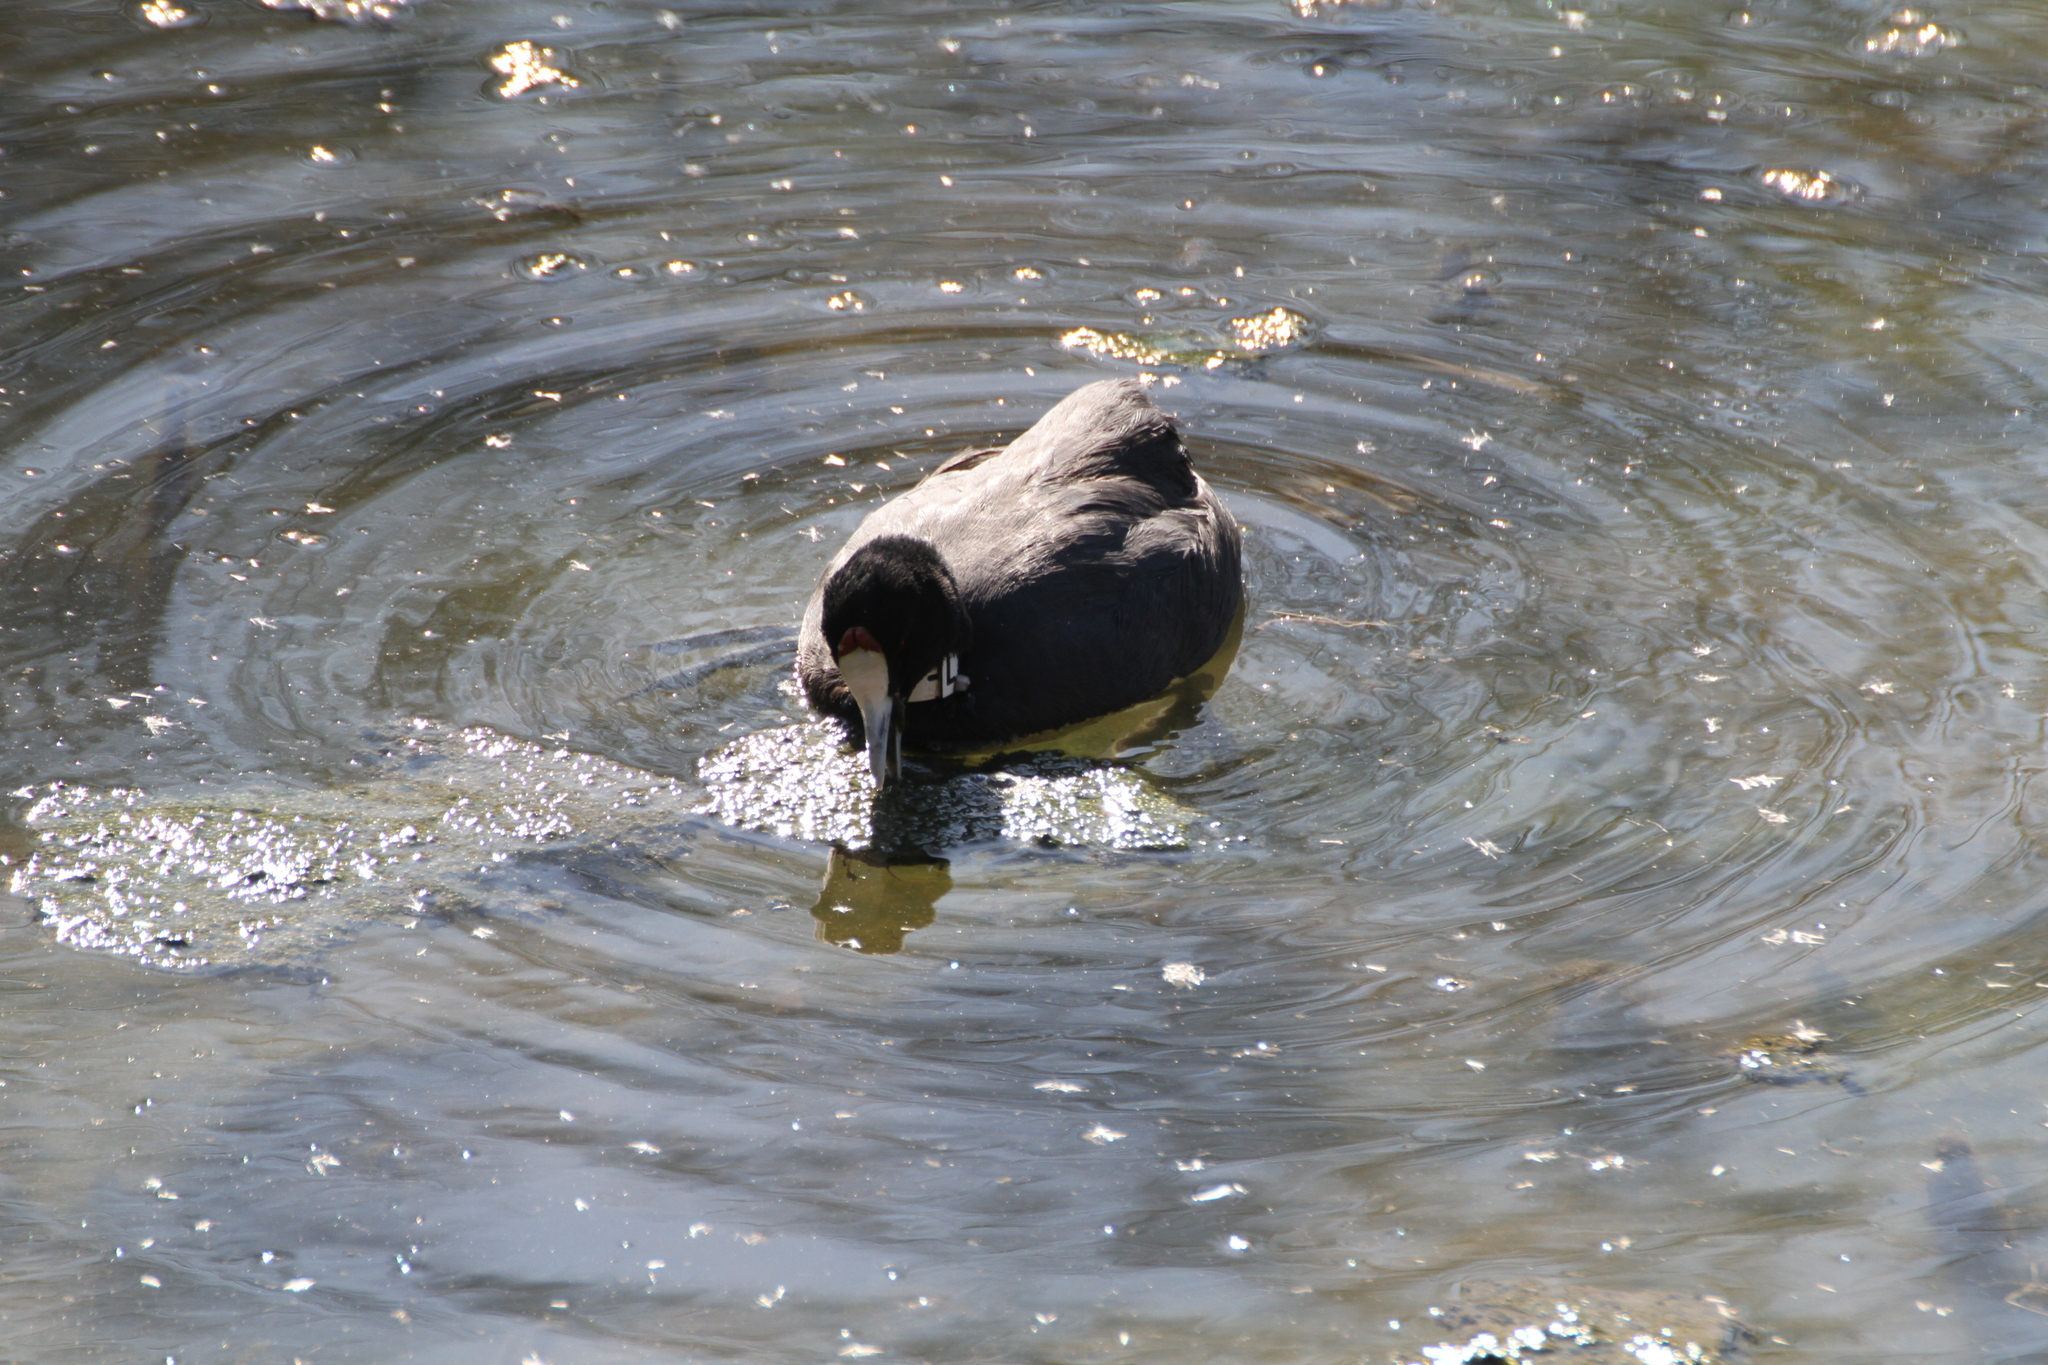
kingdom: Animalia
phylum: Chordata
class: Aves
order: Gruiformes
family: Rallidae
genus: Fulica
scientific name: Fulica cristata
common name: Red-knobbed coot
